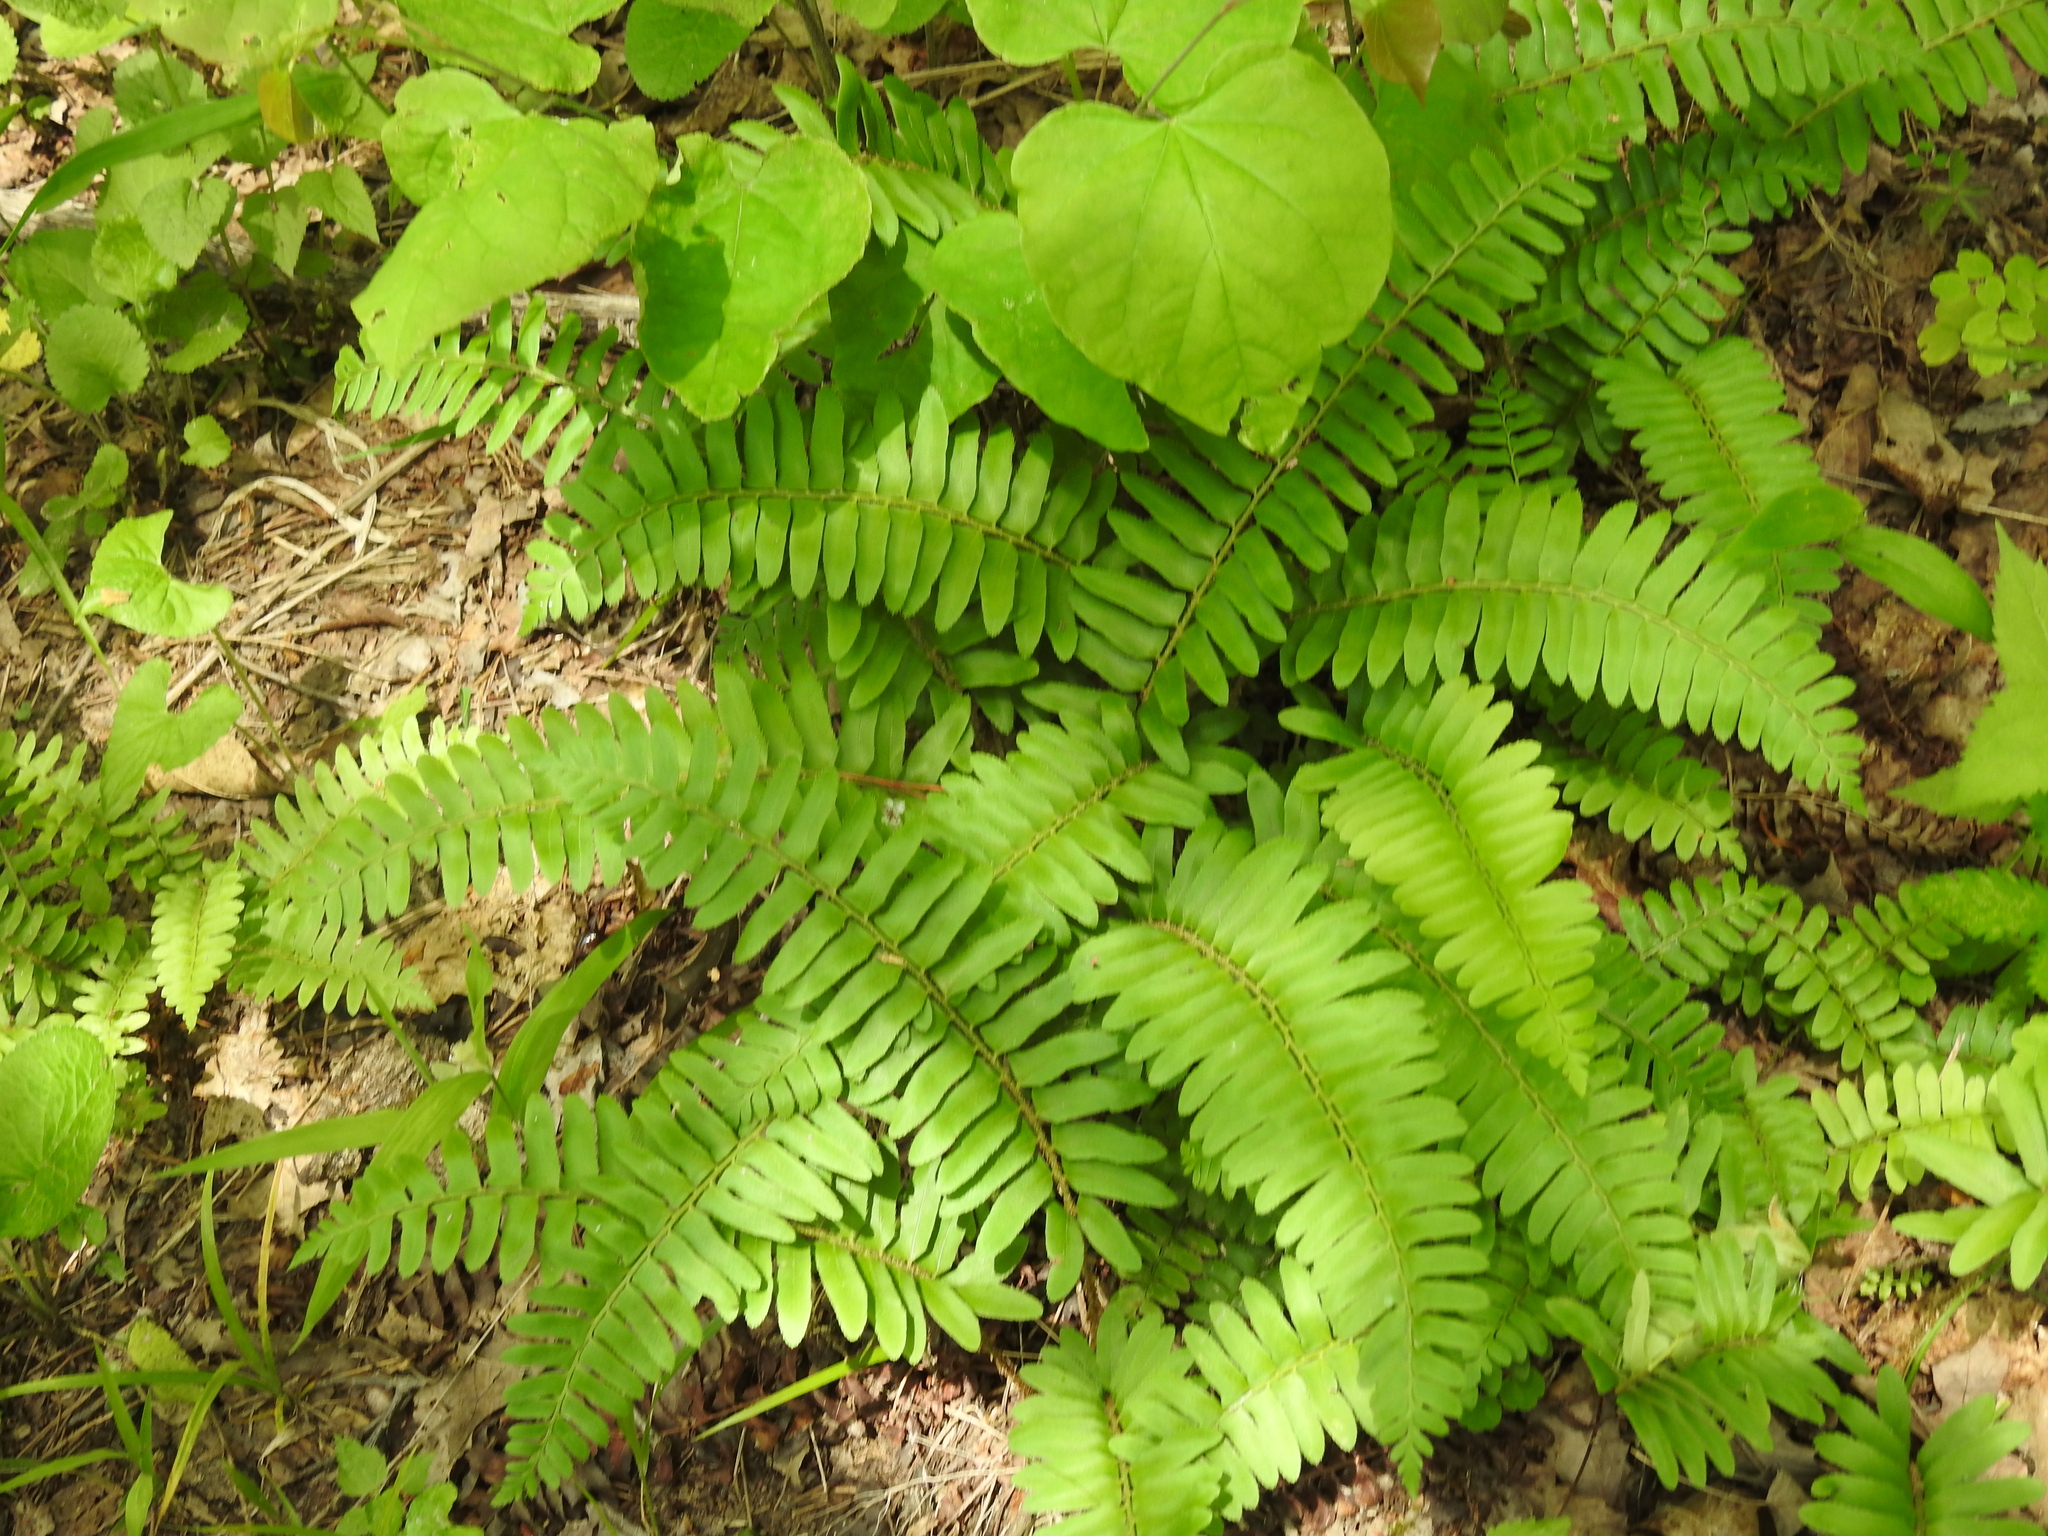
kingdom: Plantae
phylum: Tracheophyta
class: Polypodiopsida
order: Polypodiales
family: Dryopteridaceae
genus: Polystichum
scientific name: Polystichum acrostichoides
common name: Christmas fern
